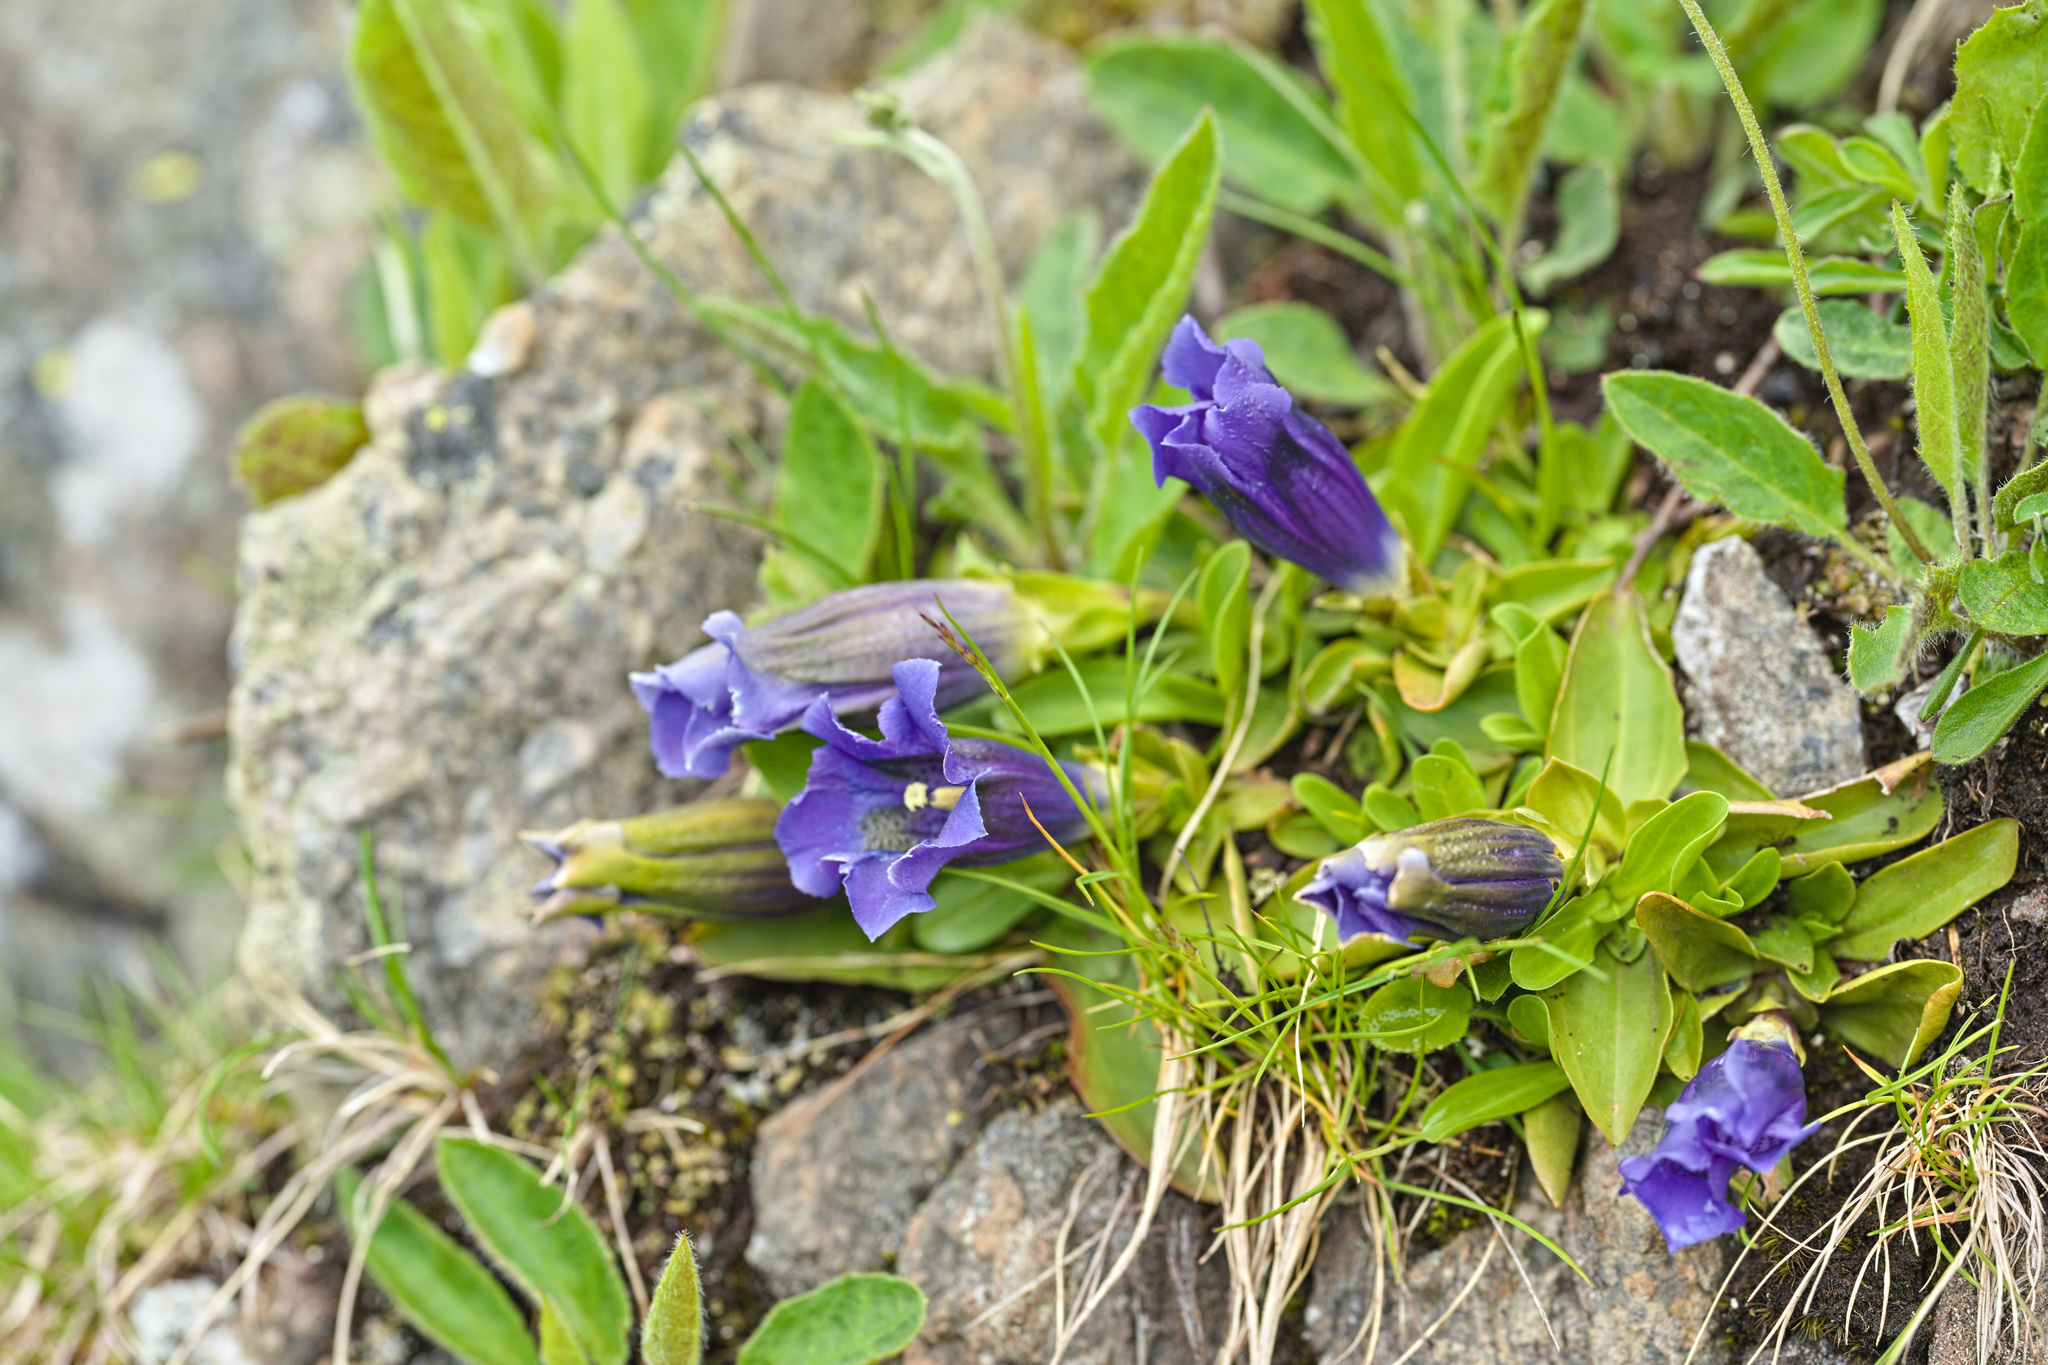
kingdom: Plantae
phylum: Tracheophyta
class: Magnoliopsida
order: Gentianales
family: Gentianaceae
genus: Gentiana
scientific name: Gentiana acaulis
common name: Trumpet gentian
